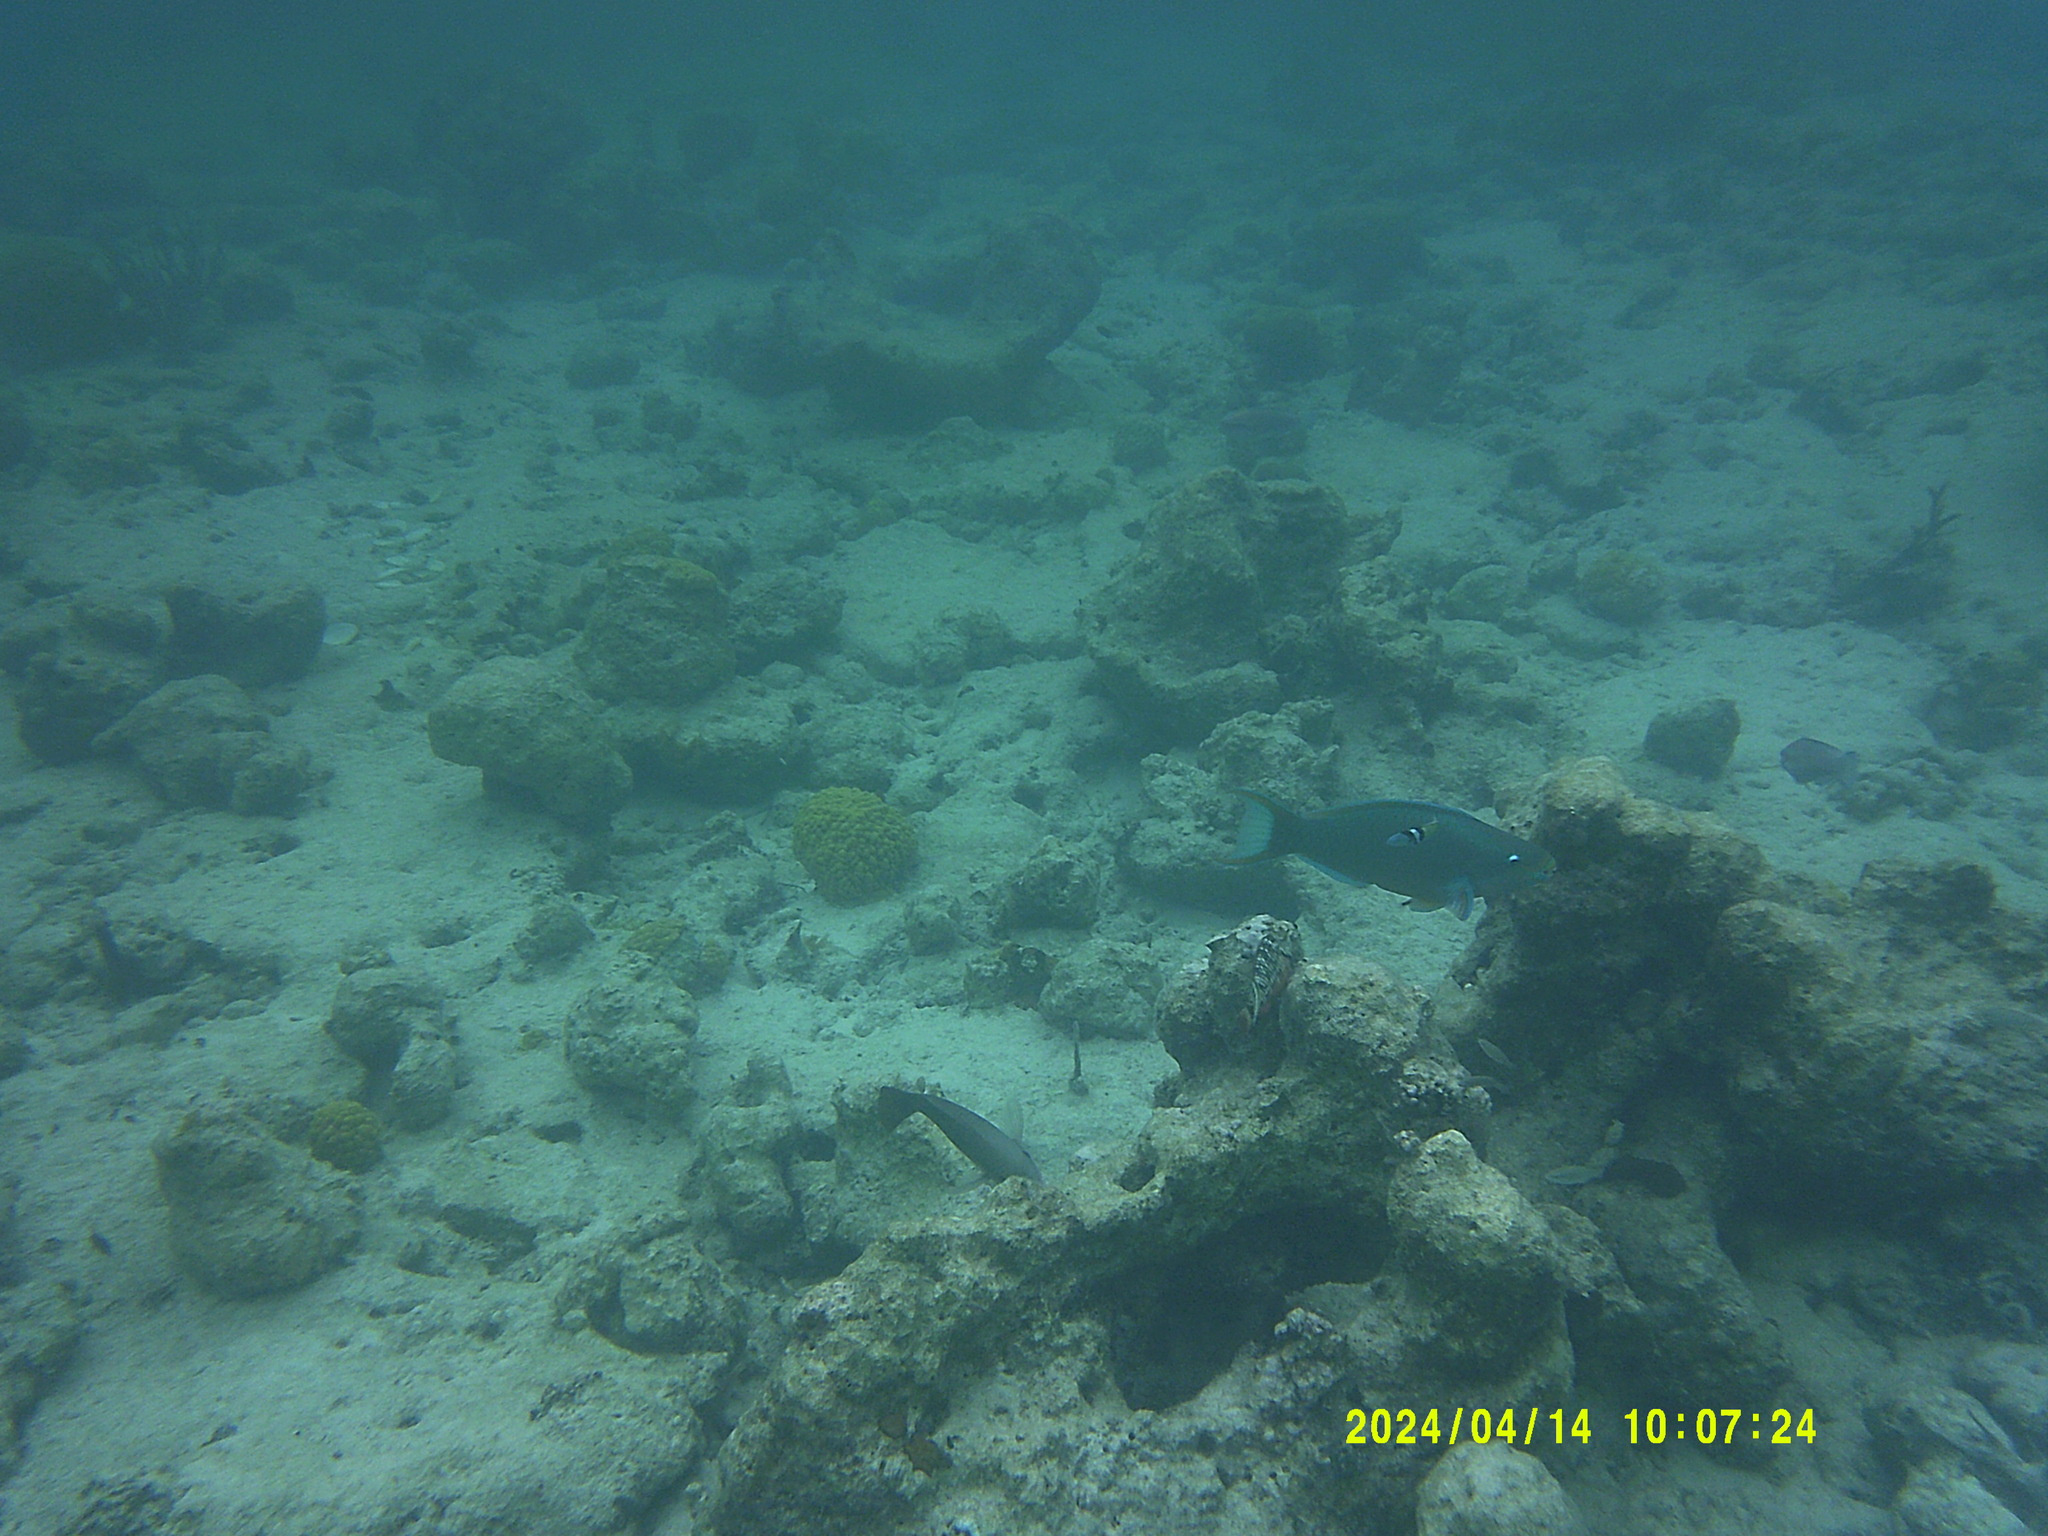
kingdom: Animalia
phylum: Chordata
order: Perciformes
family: Labridae
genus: Thalassoma
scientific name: Thalassoma bifasciatum
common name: Bluehead wrasse
